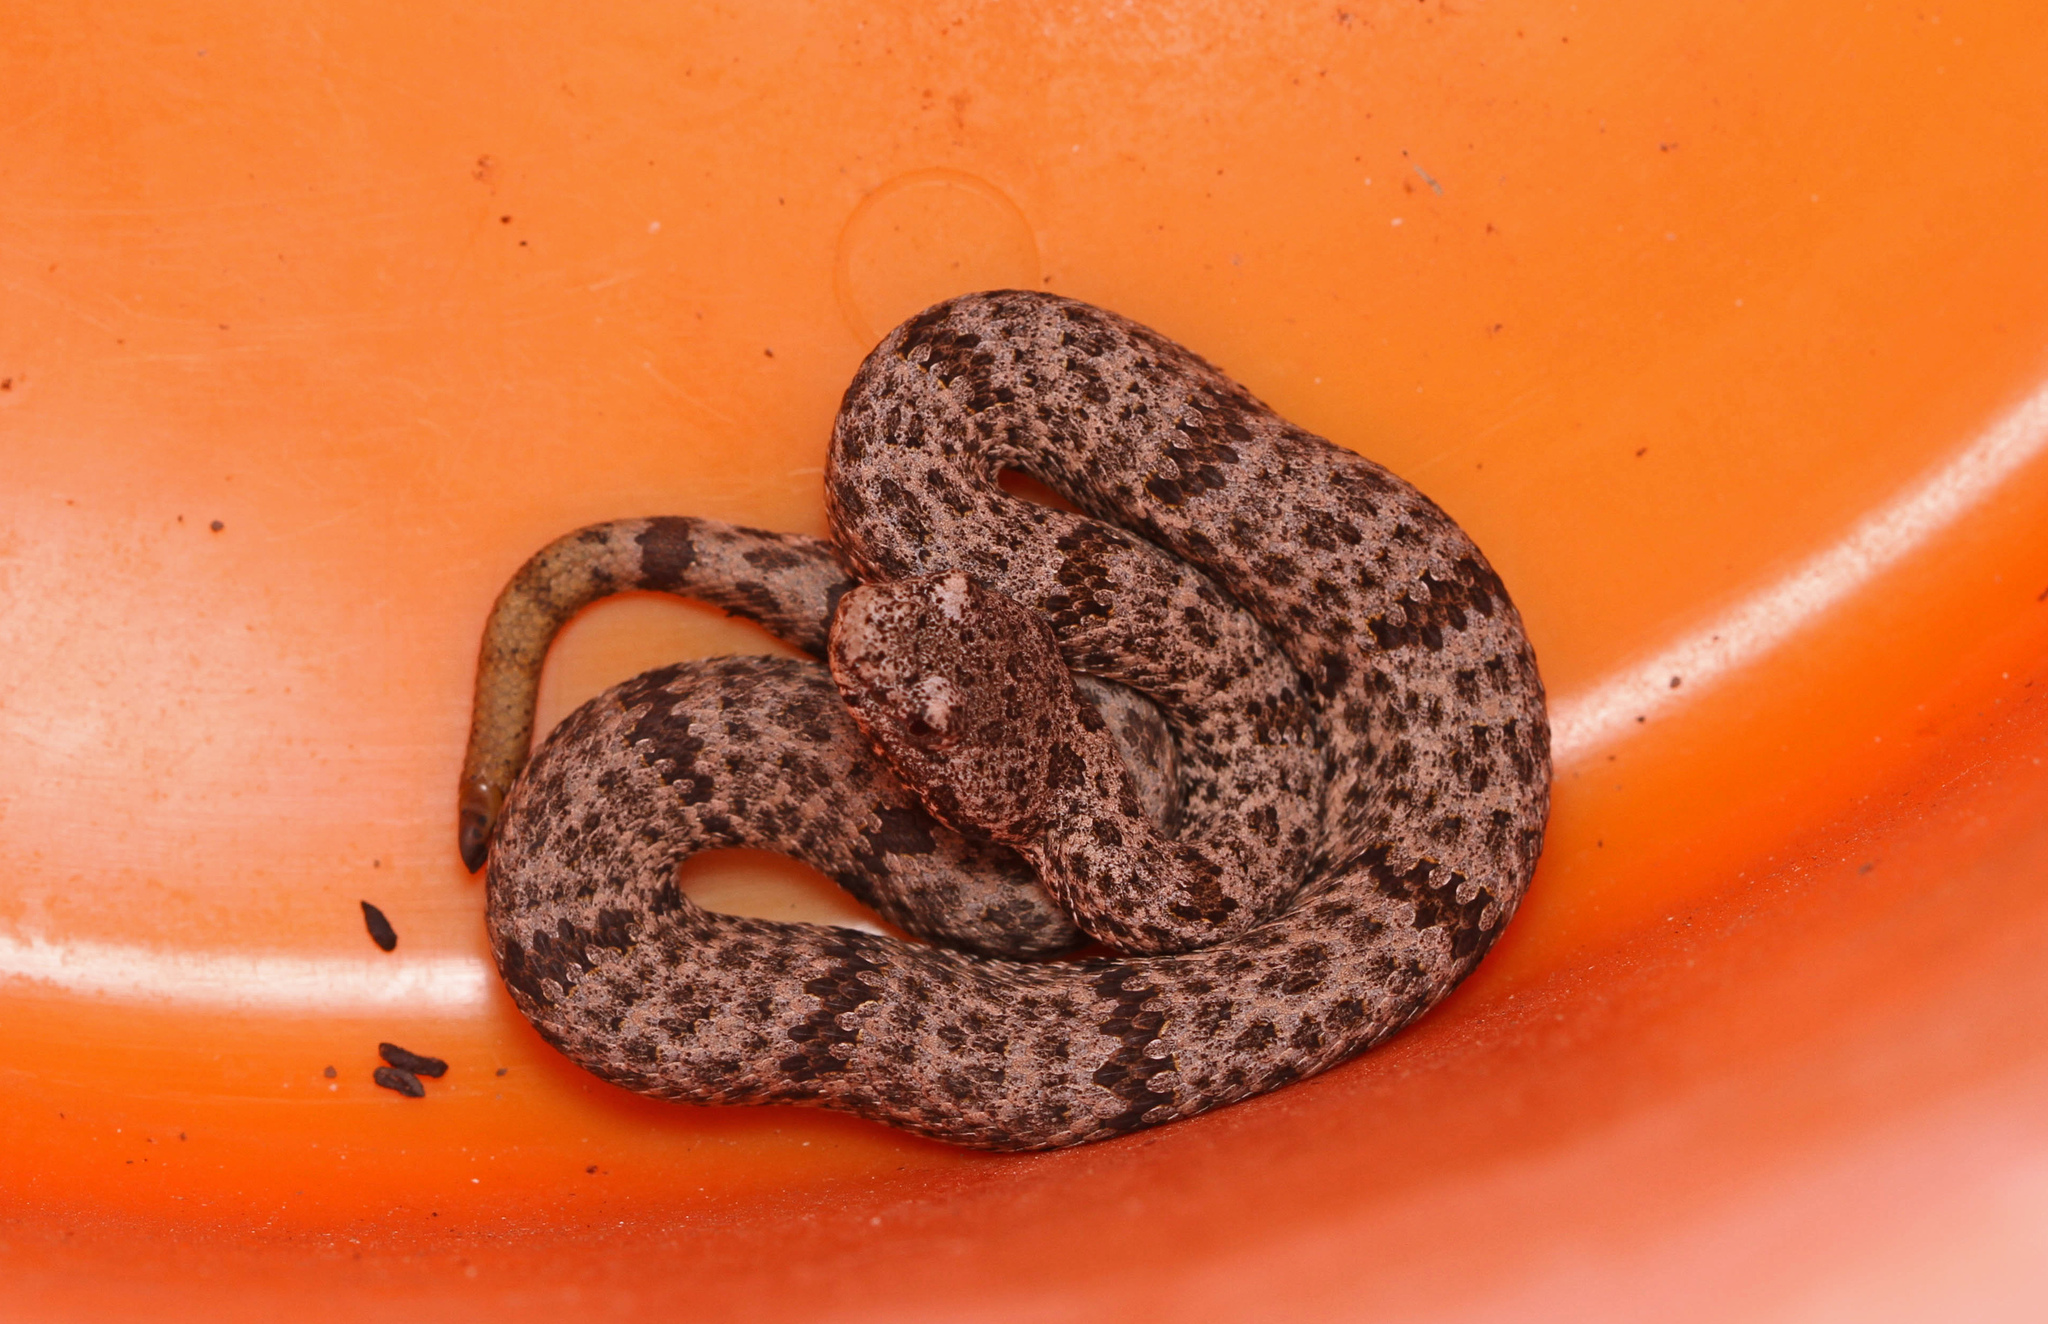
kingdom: Animalia
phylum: Chordata
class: Squamata
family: Viperidae
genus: Crotalus
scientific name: Crotalus lepidus
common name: Rock rattlesnake
